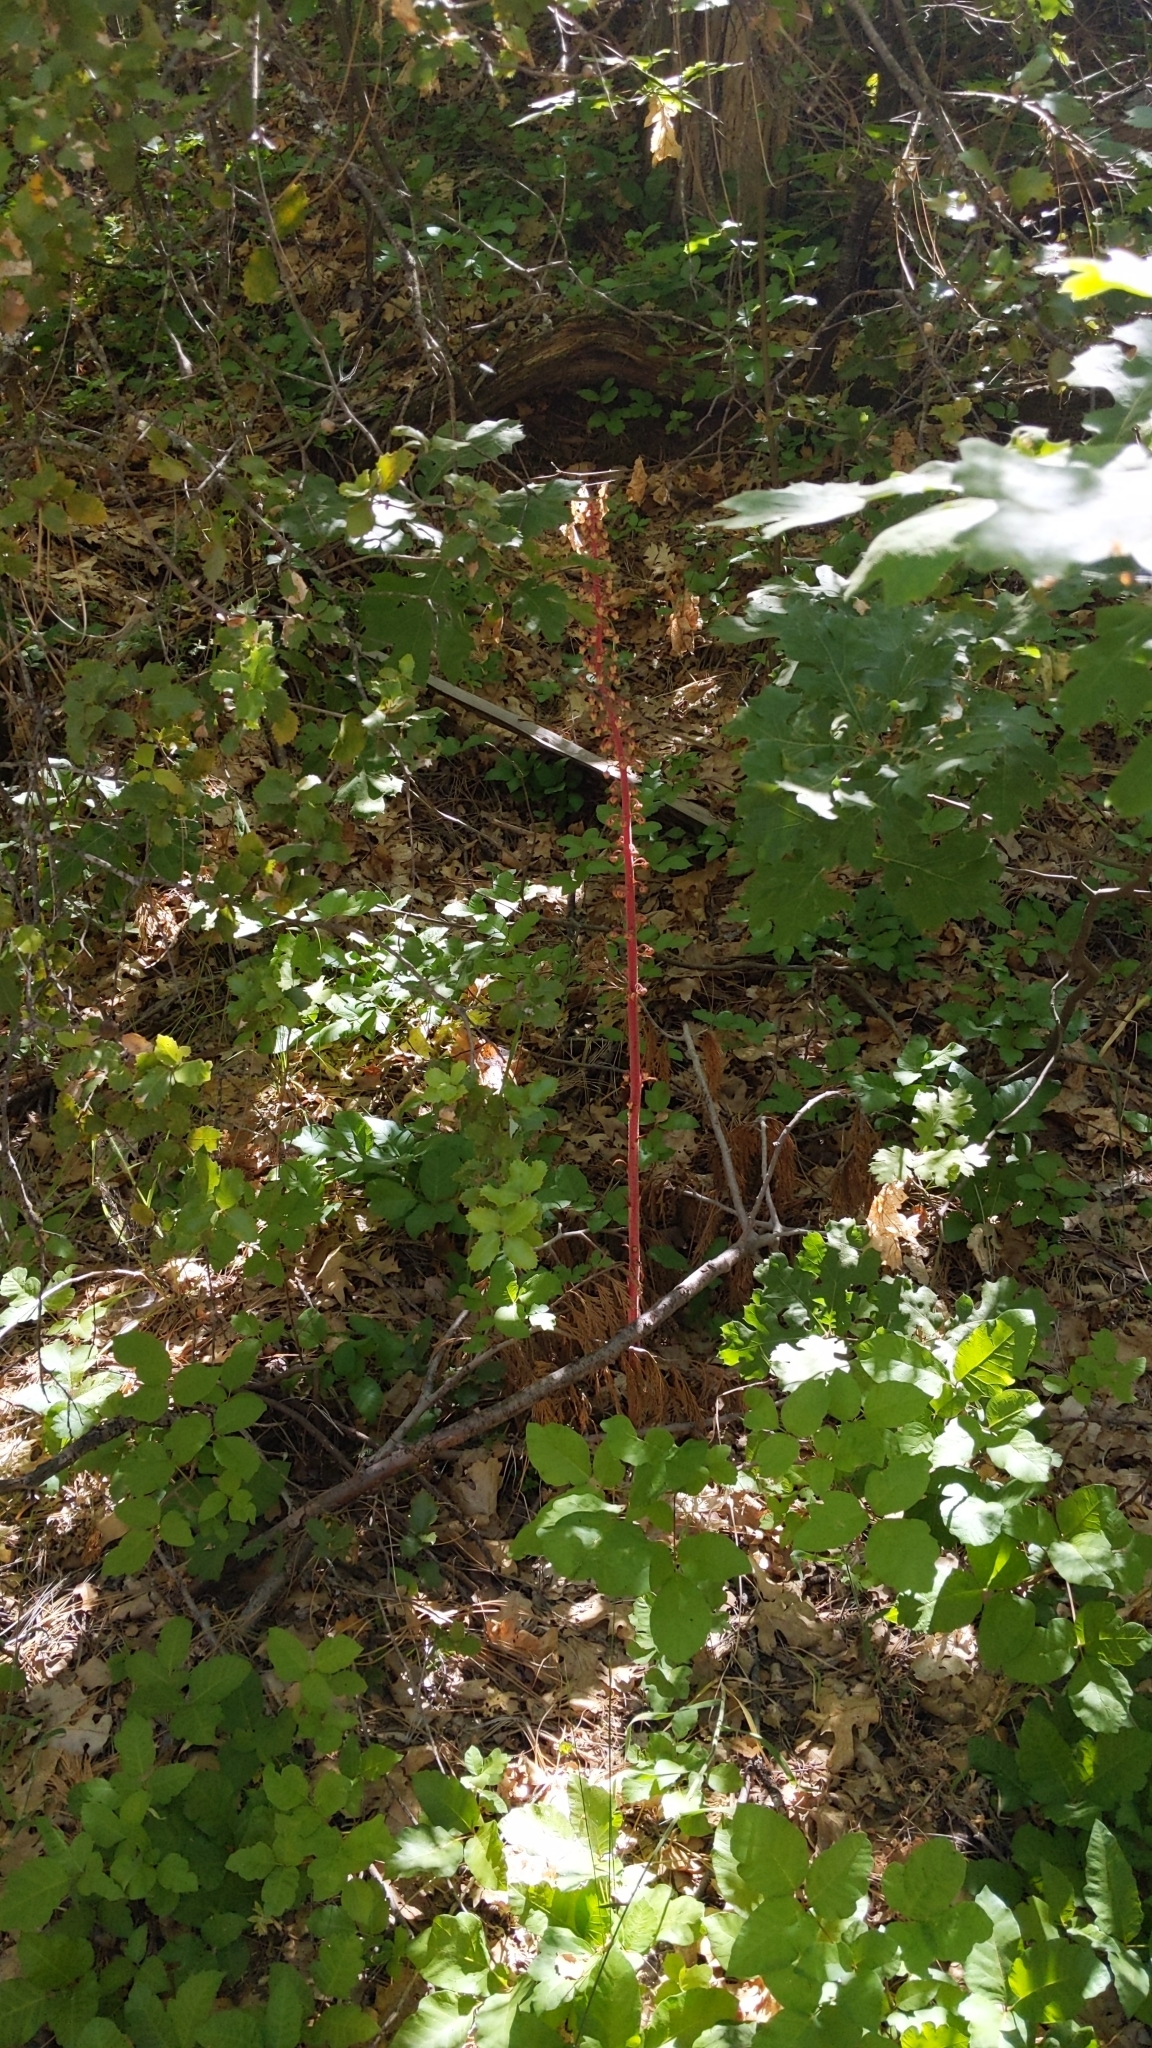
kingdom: Plantae
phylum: Tracheophyta
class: Magnoliopsida
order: Ericales
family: Ericaceae
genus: Pterospora
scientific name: Pterospora andromedea
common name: Giant bird's-nest
